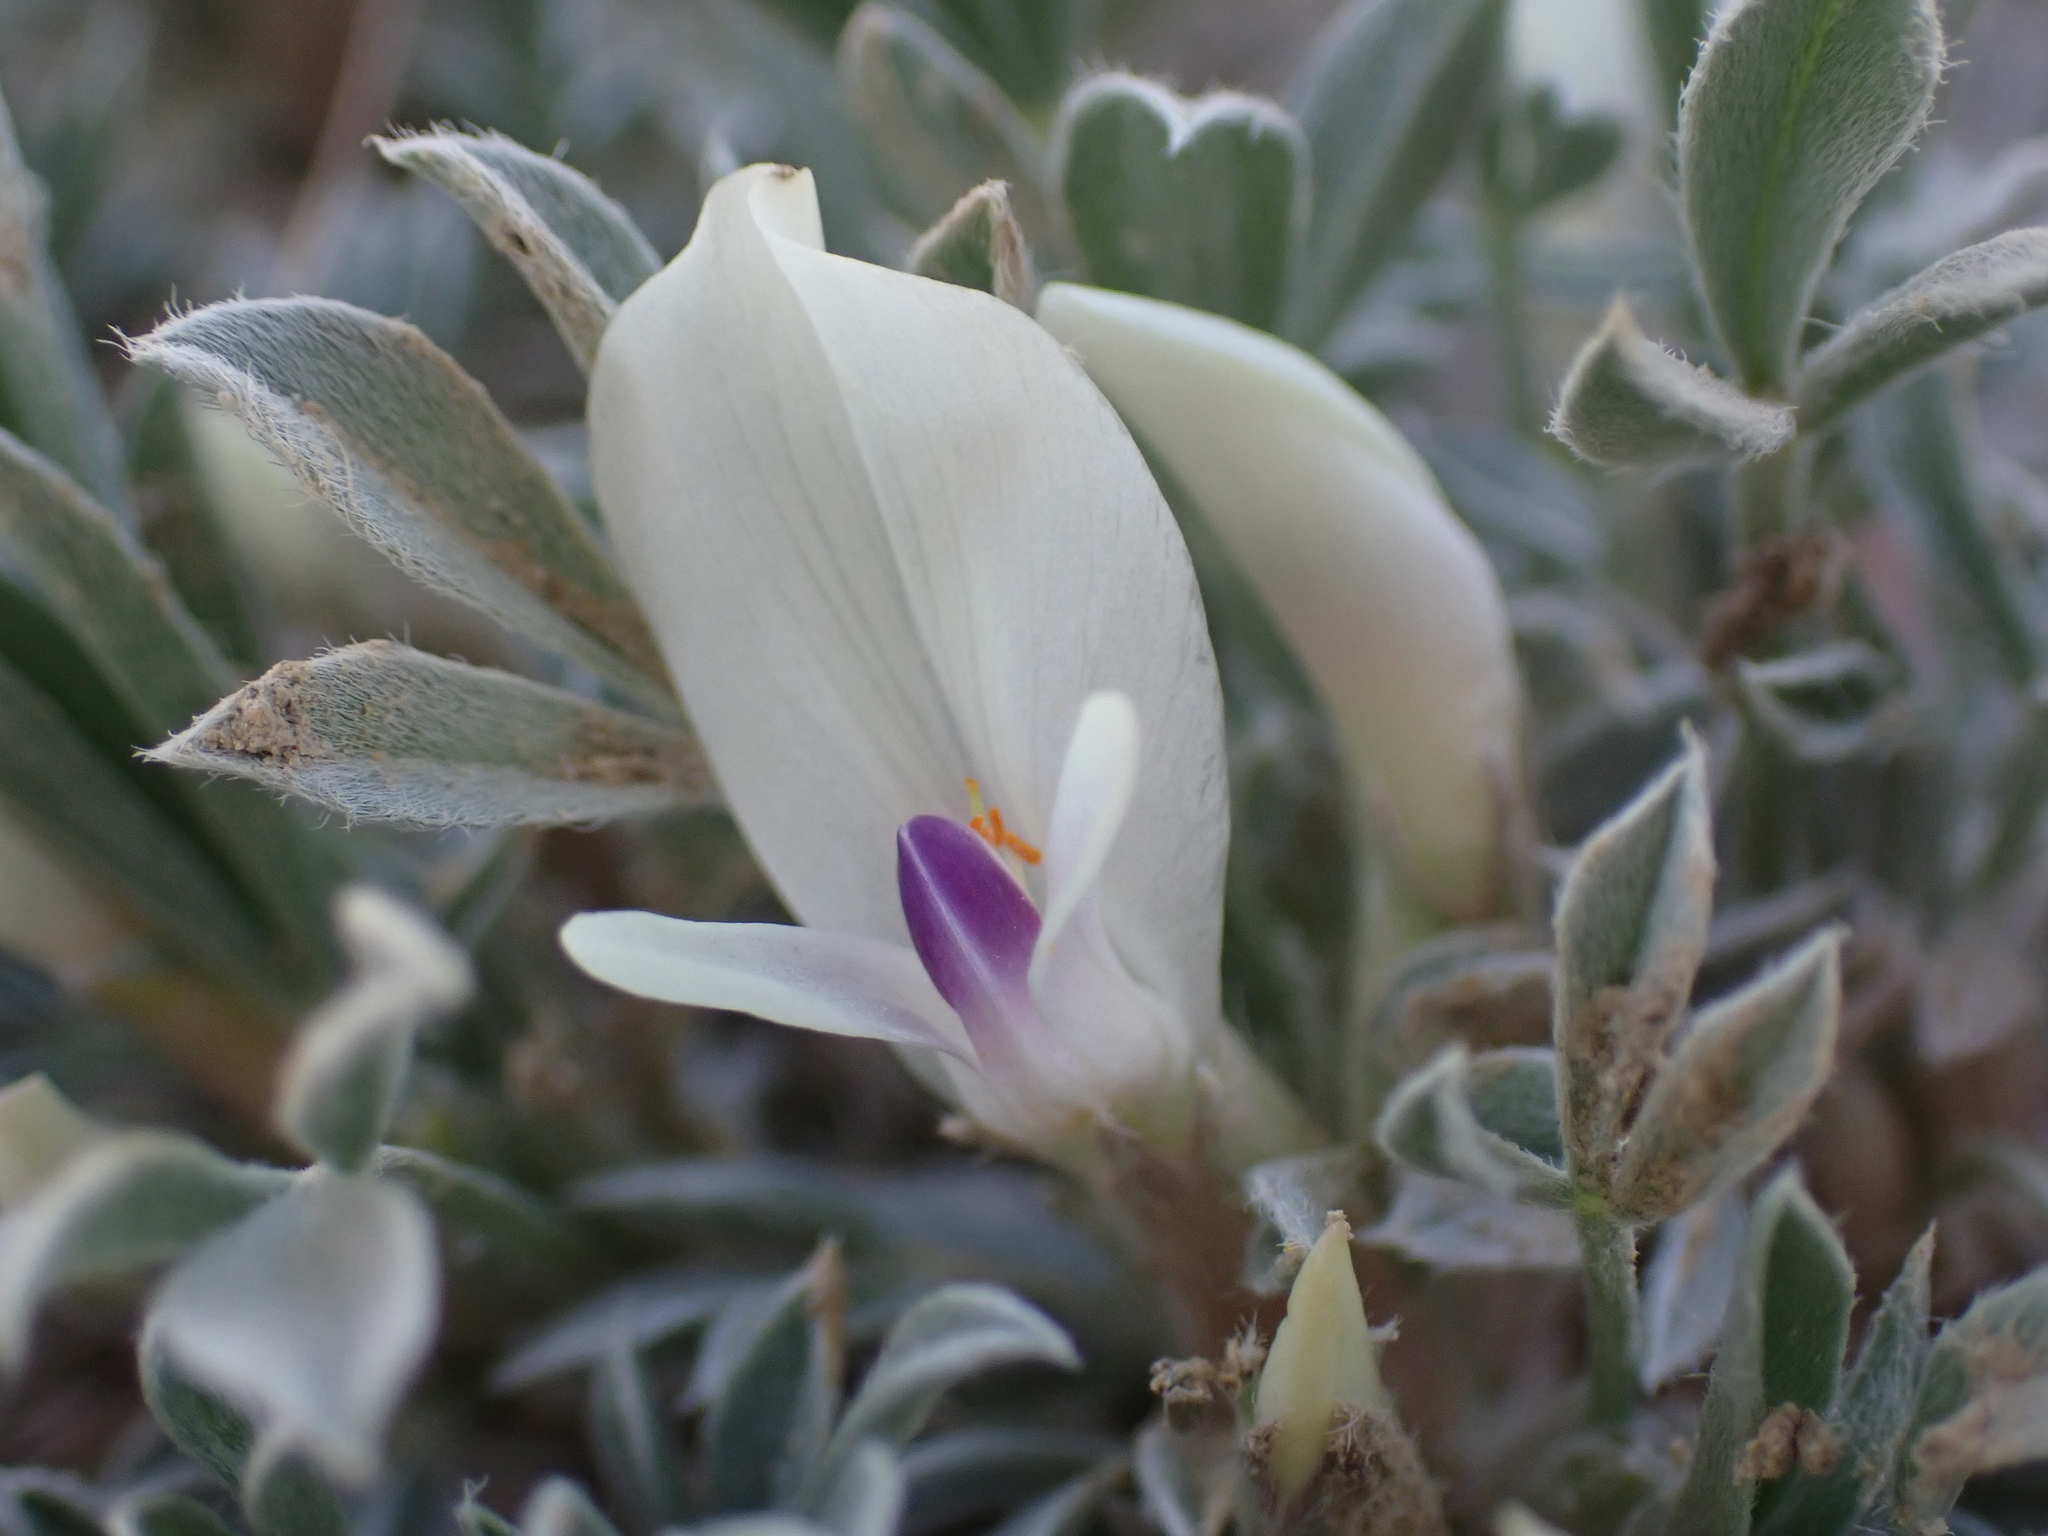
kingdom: Plantae
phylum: Tracheophyta
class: Magnoliopsida
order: Fabales
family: Fabaceae
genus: Astragalus
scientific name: Astragalus gilviflorus
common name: Cushion milk-vetch
